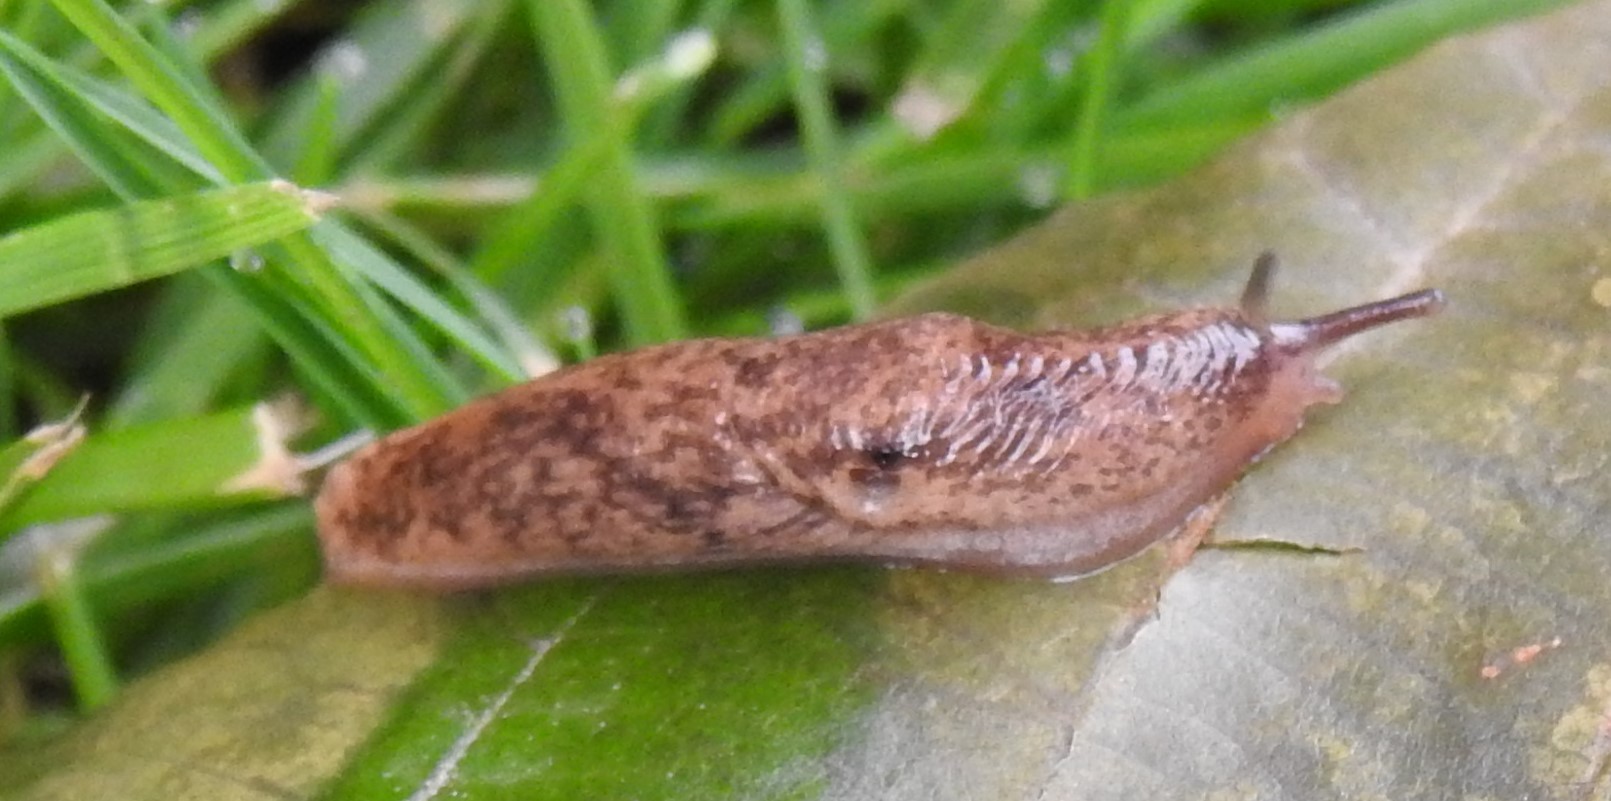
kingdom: Animalia
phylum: Mollusca
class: Gastropoda
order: Stylommatophora
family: Agriolimacidae
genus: Deroceras
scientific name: Deroceras reticulatum
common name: Gray field slug
